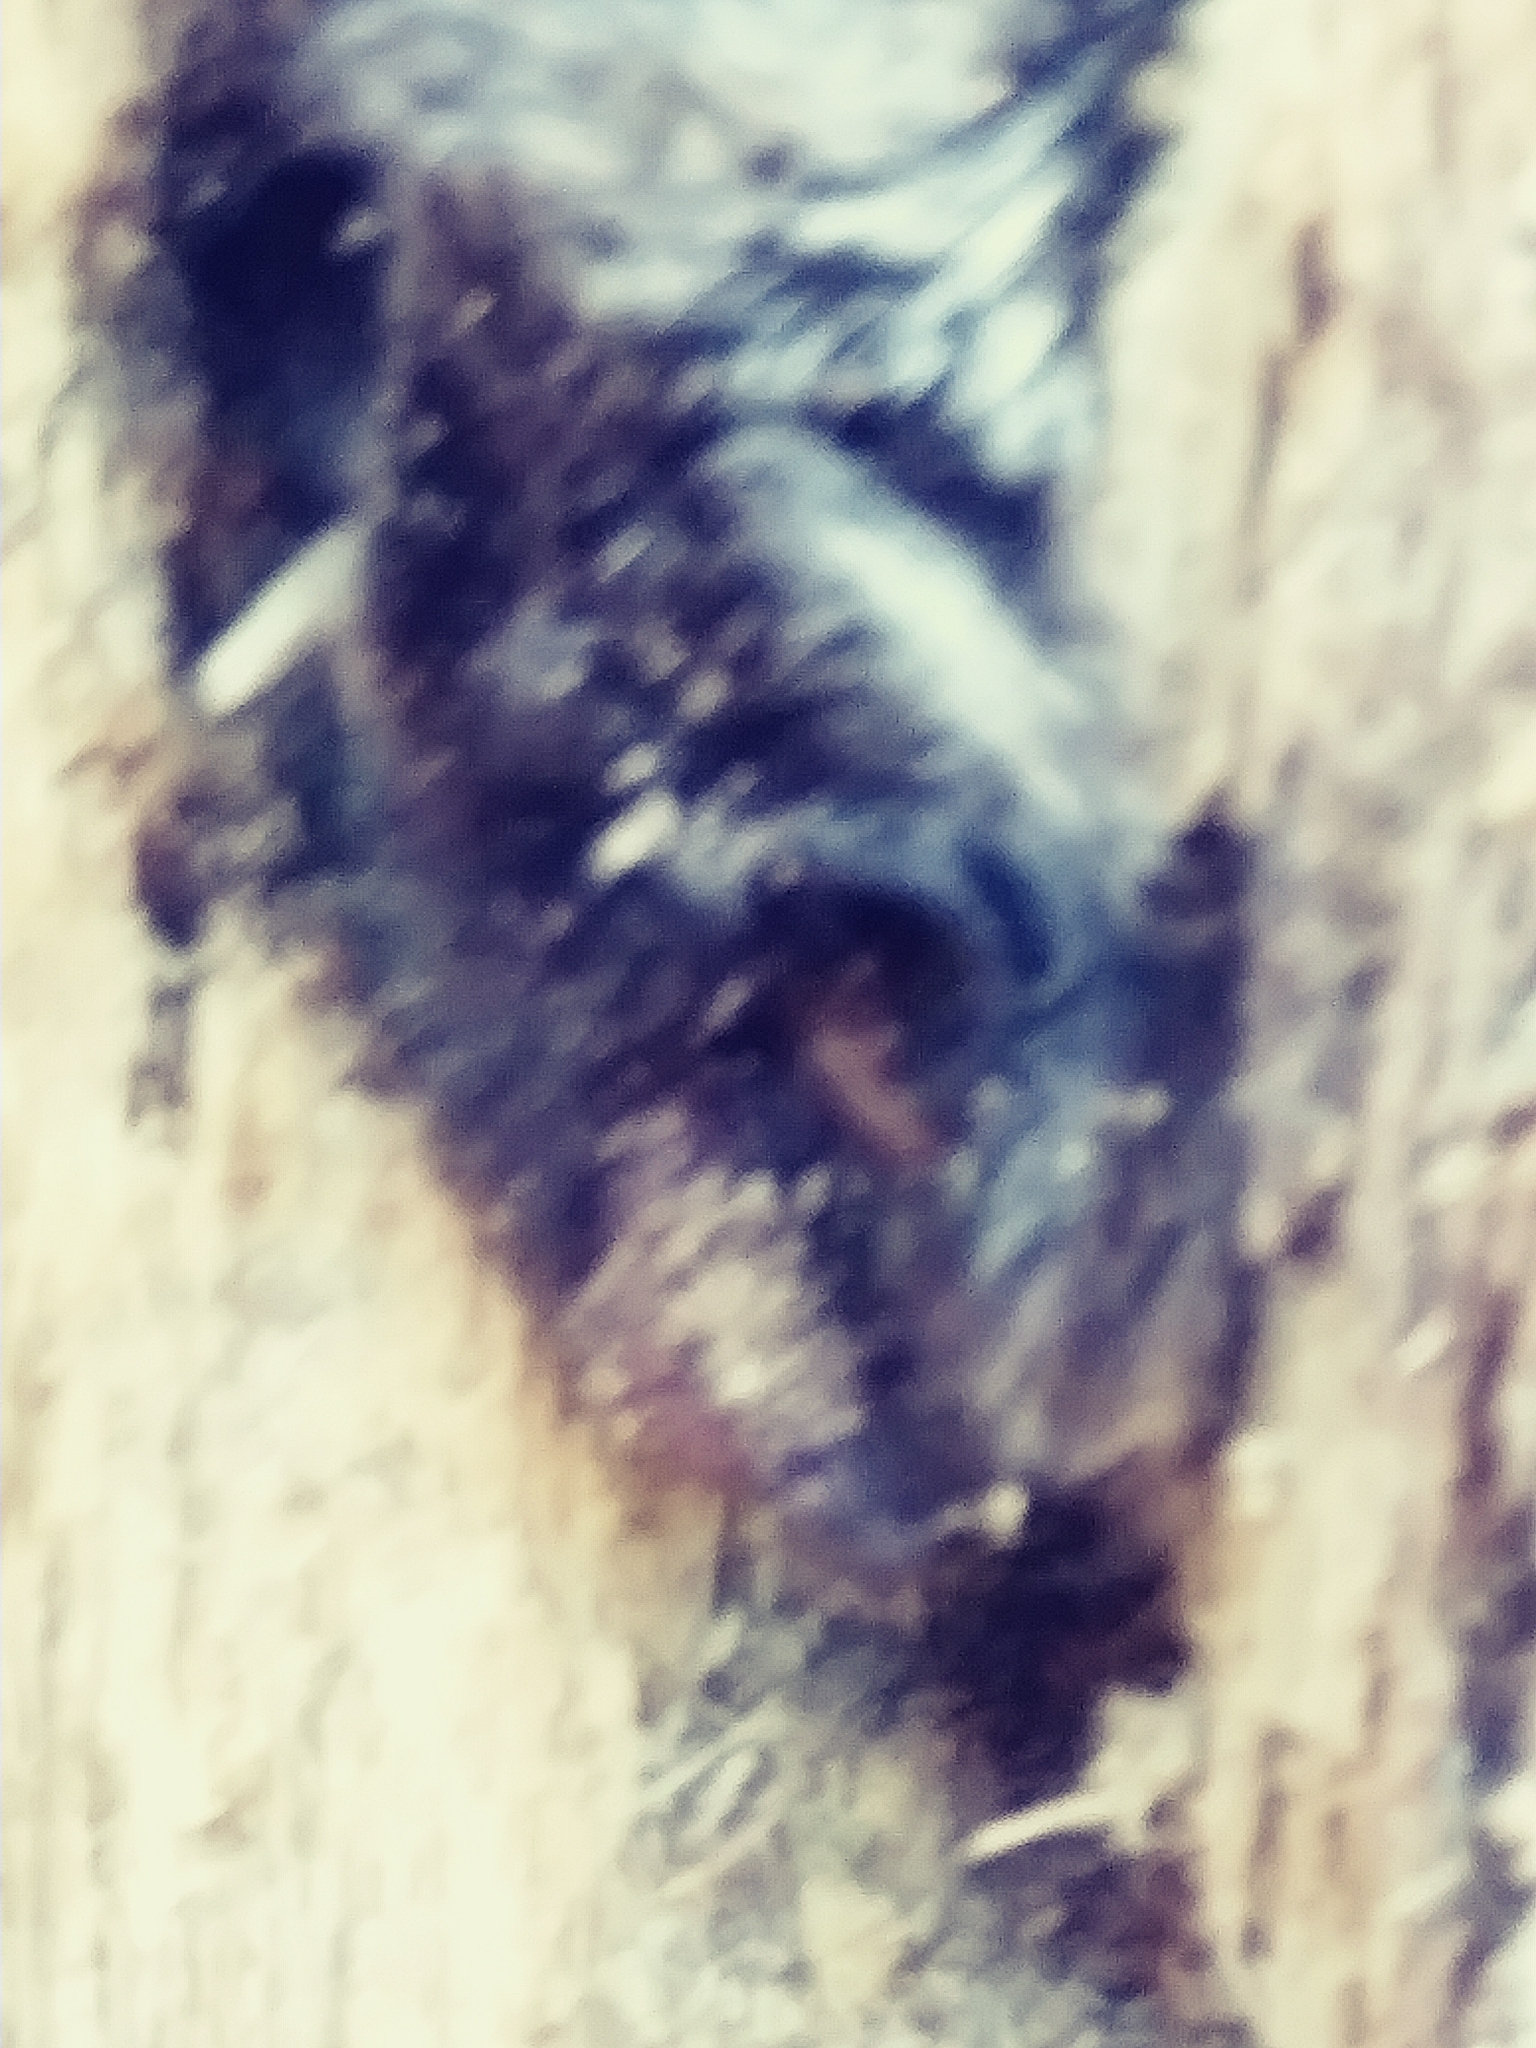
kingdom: Animalia
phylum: Chordata
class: Mammalia
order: Chiroptera
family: Vespertilionidae
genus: Lasionycteris
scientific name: Lasionycteris noctivagans
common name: Silver-haired bat
